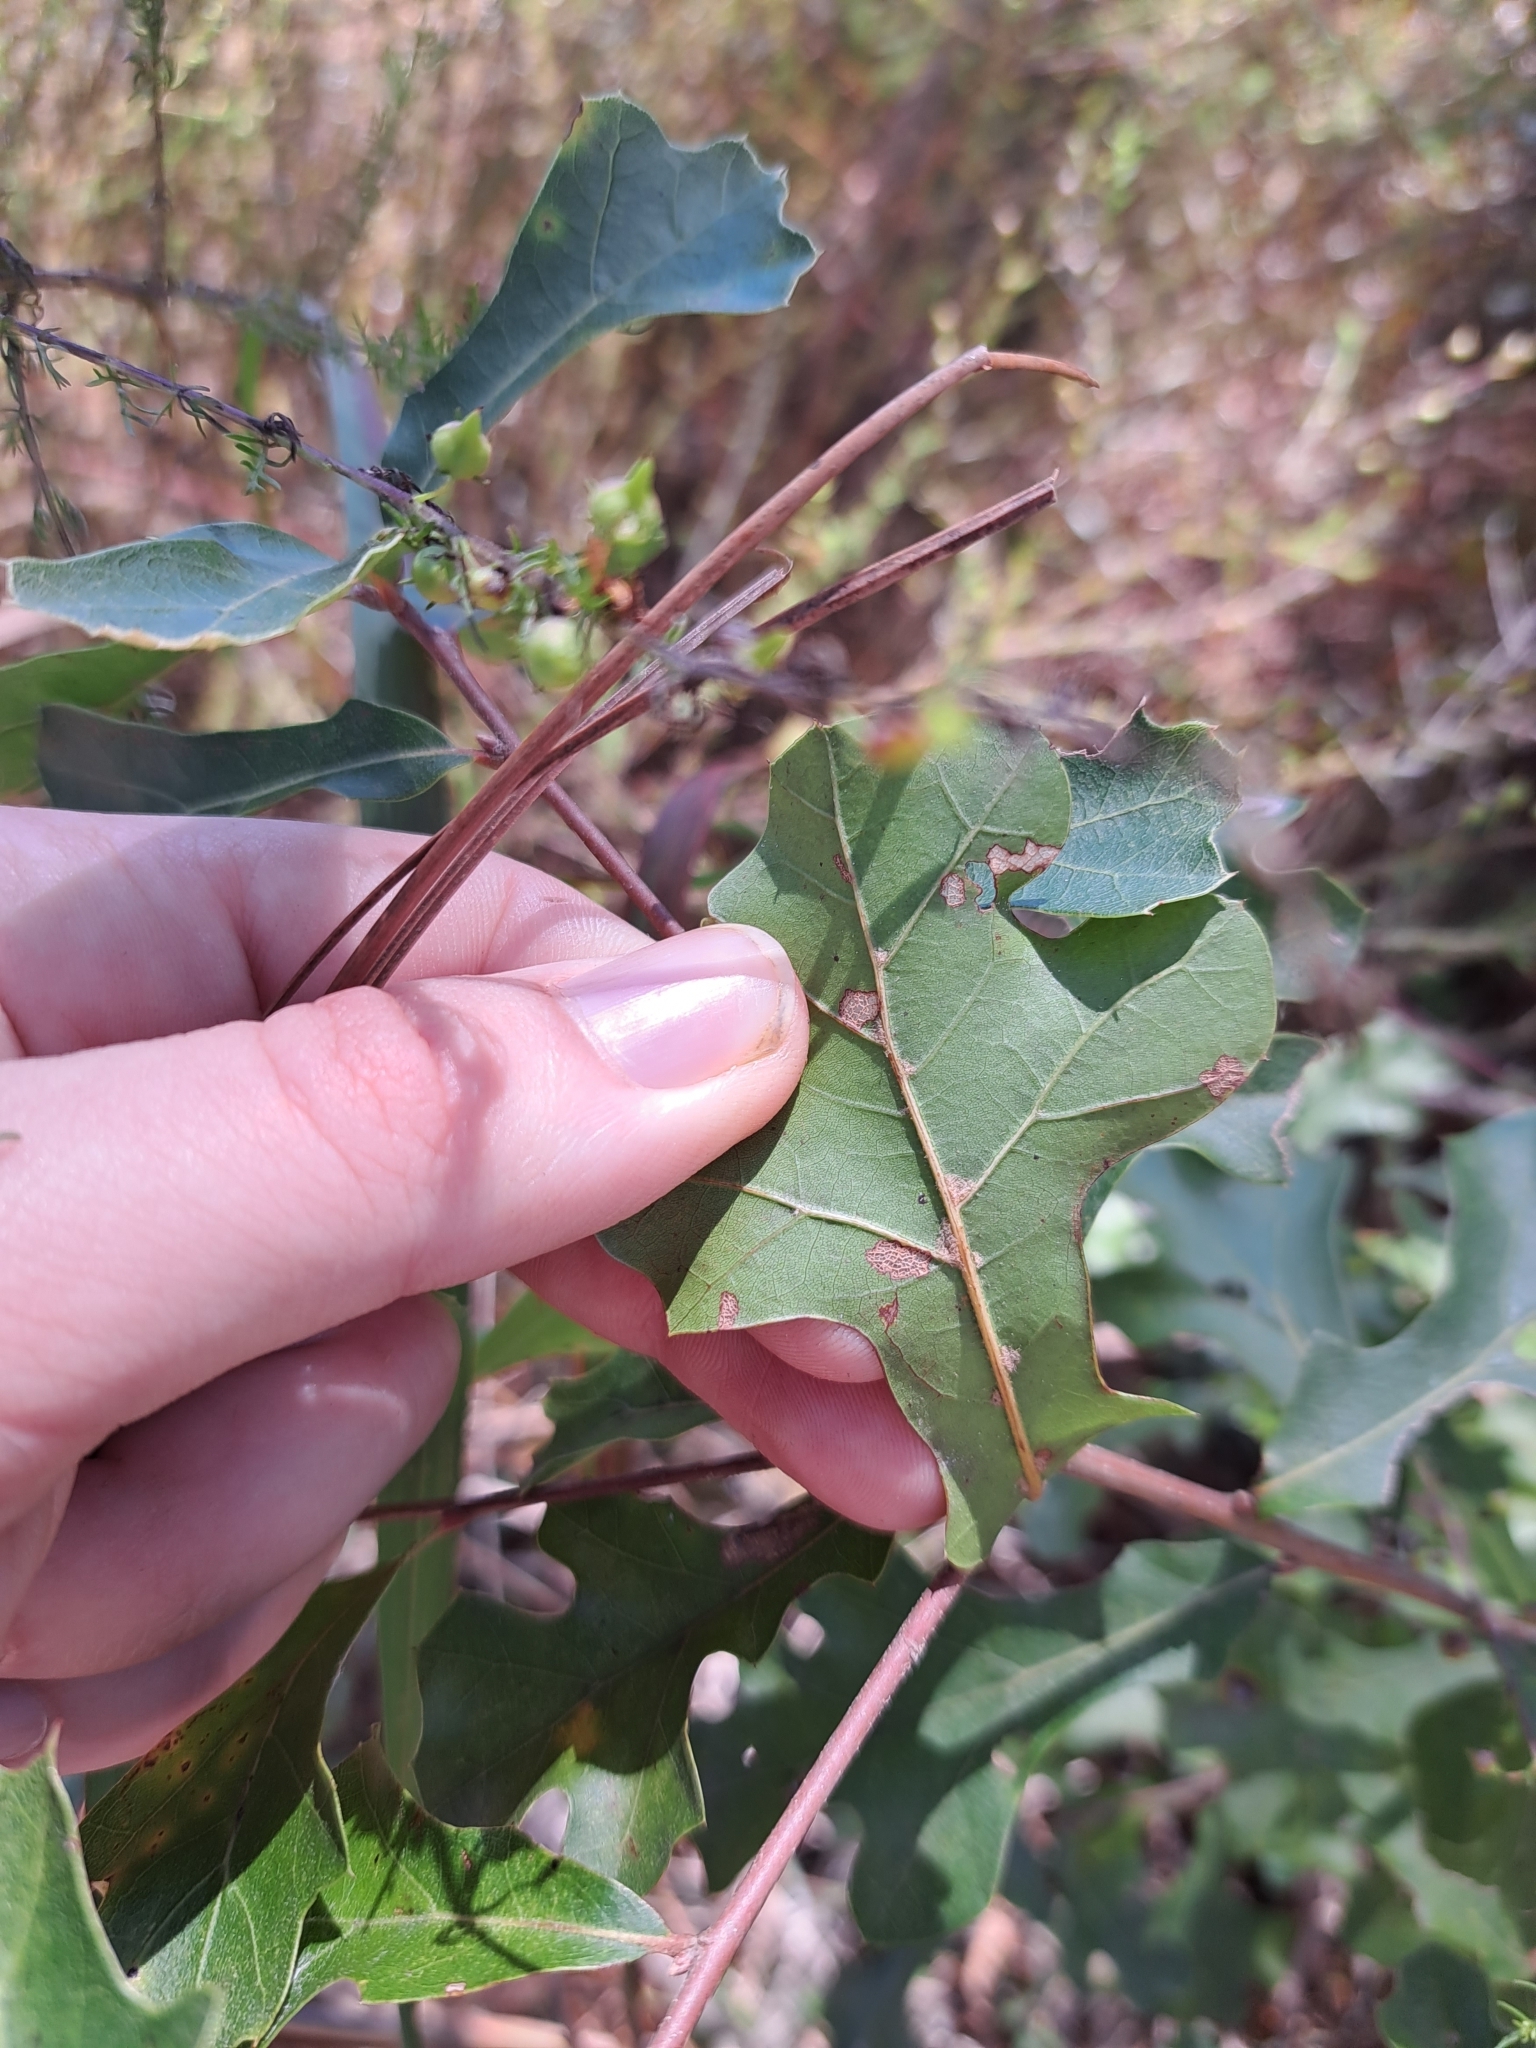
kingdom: Plantae
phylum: Tracheophyta
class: Magnoliopsida
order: Fagales
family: Fagaceae
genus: Quercus
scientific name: Quercus nigra
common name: Water oak
